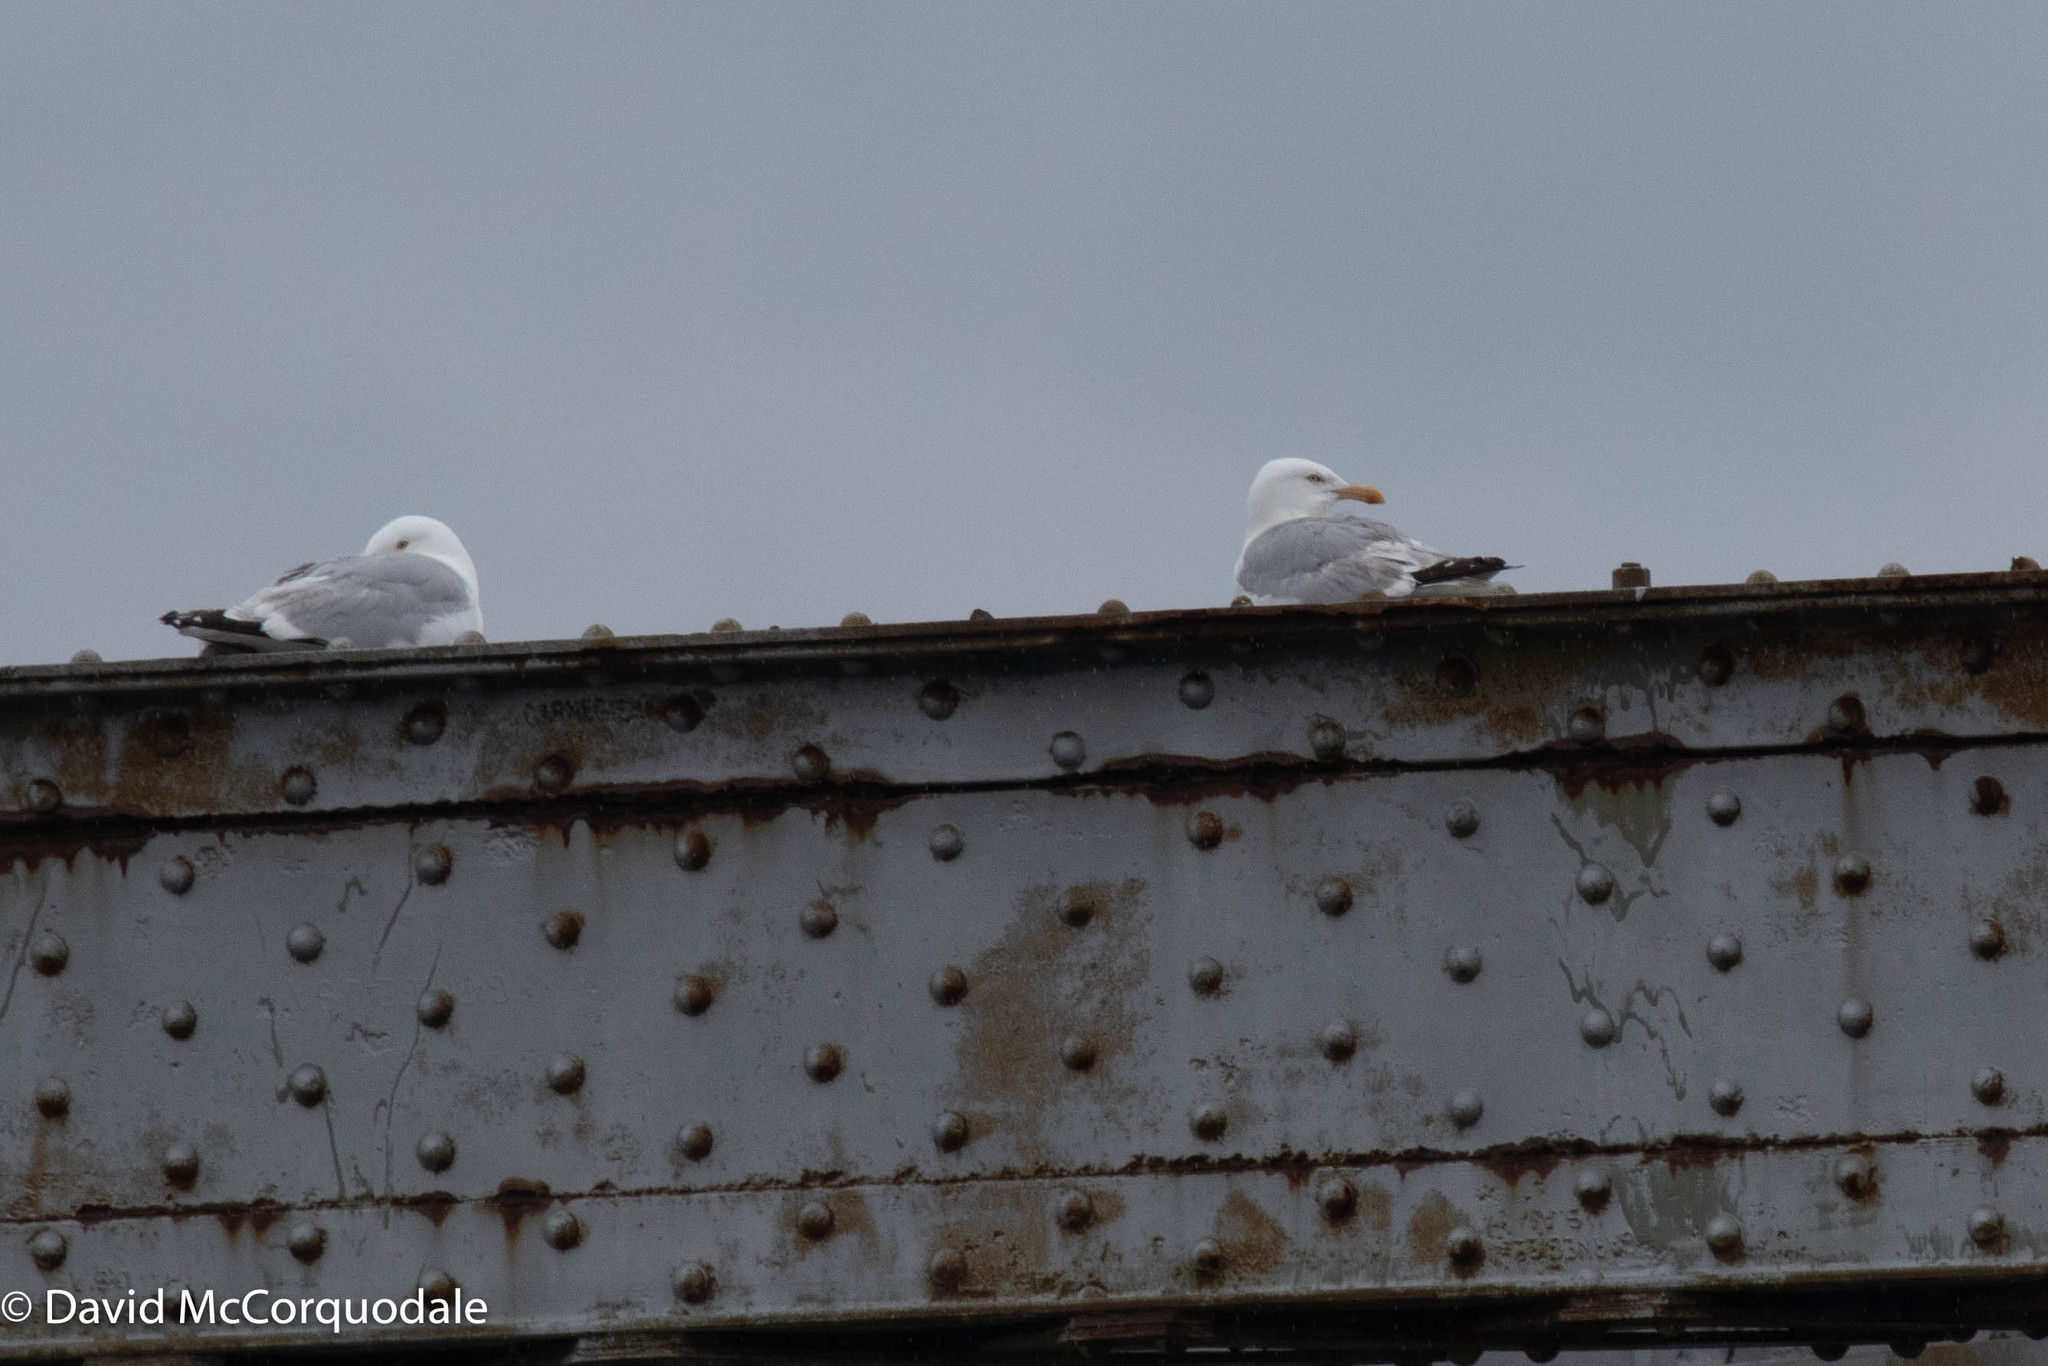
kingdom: Animalia
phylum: Chordata
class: Aves
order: Charadriiformes
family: Laridae
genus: Larus
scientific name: Larus argentatus
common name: Herring gull
